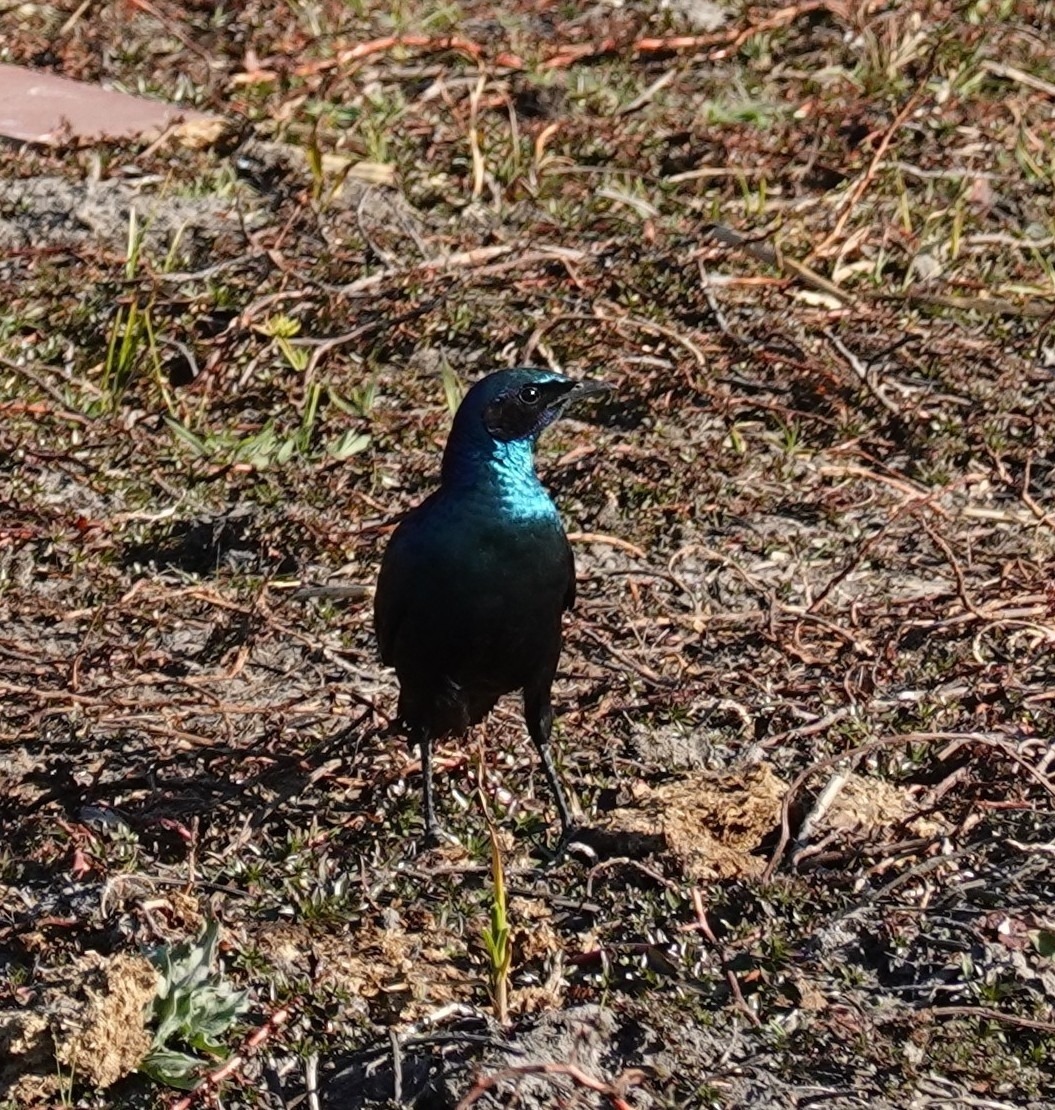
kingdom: Animalia
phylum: Chordata
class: Aves
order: Passeriformes
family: Sturnidae
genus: Lamprotornis
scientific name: Lamprotornis australis
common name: Burchell's starling
